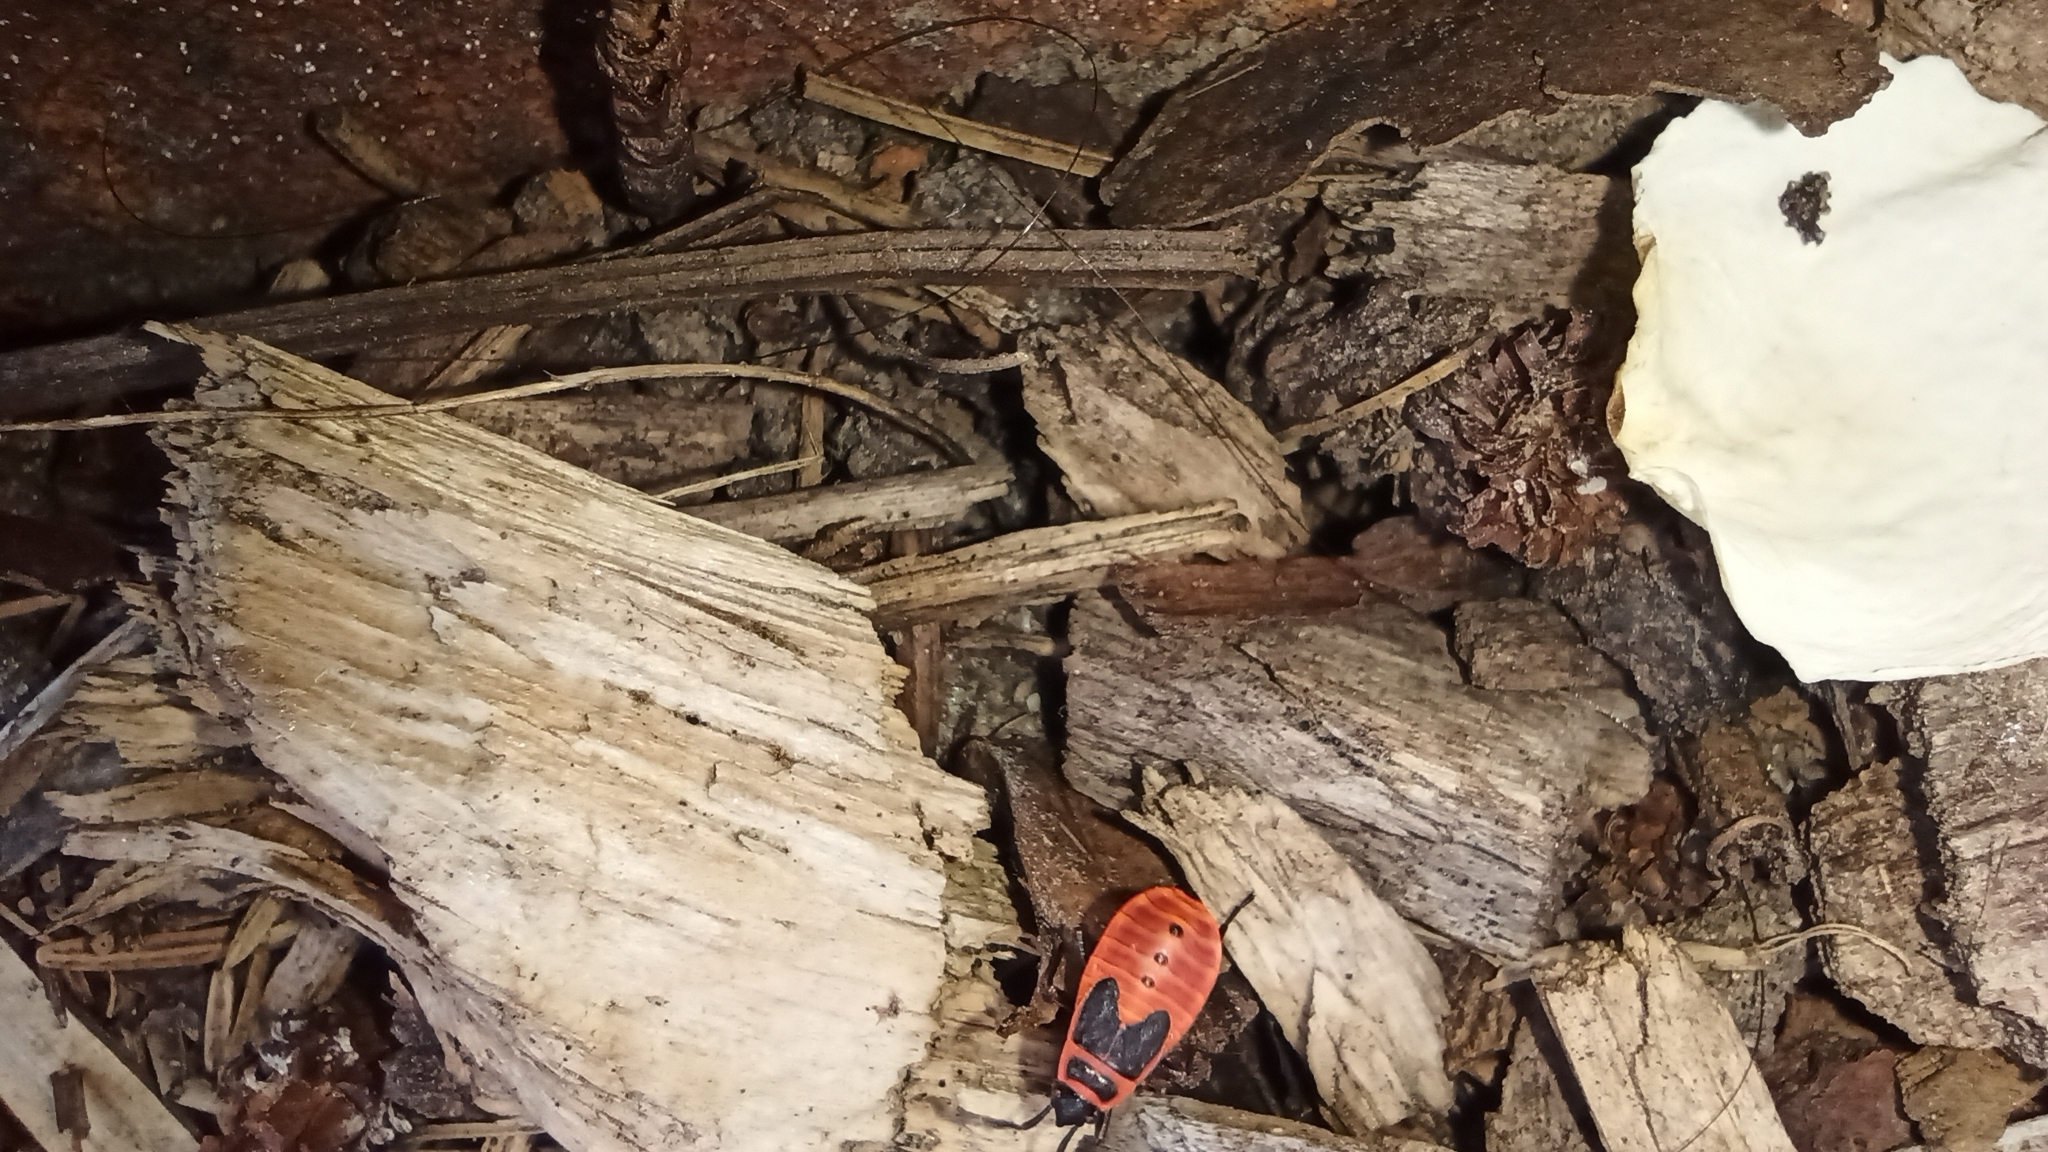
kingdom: Animalia
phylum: Arthropoda
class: Insecta
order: Hemiptera
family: Pyrrhocoridae
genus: Pyrrhocoris
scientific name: Pyrrhocoris apterus
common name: Firebug
